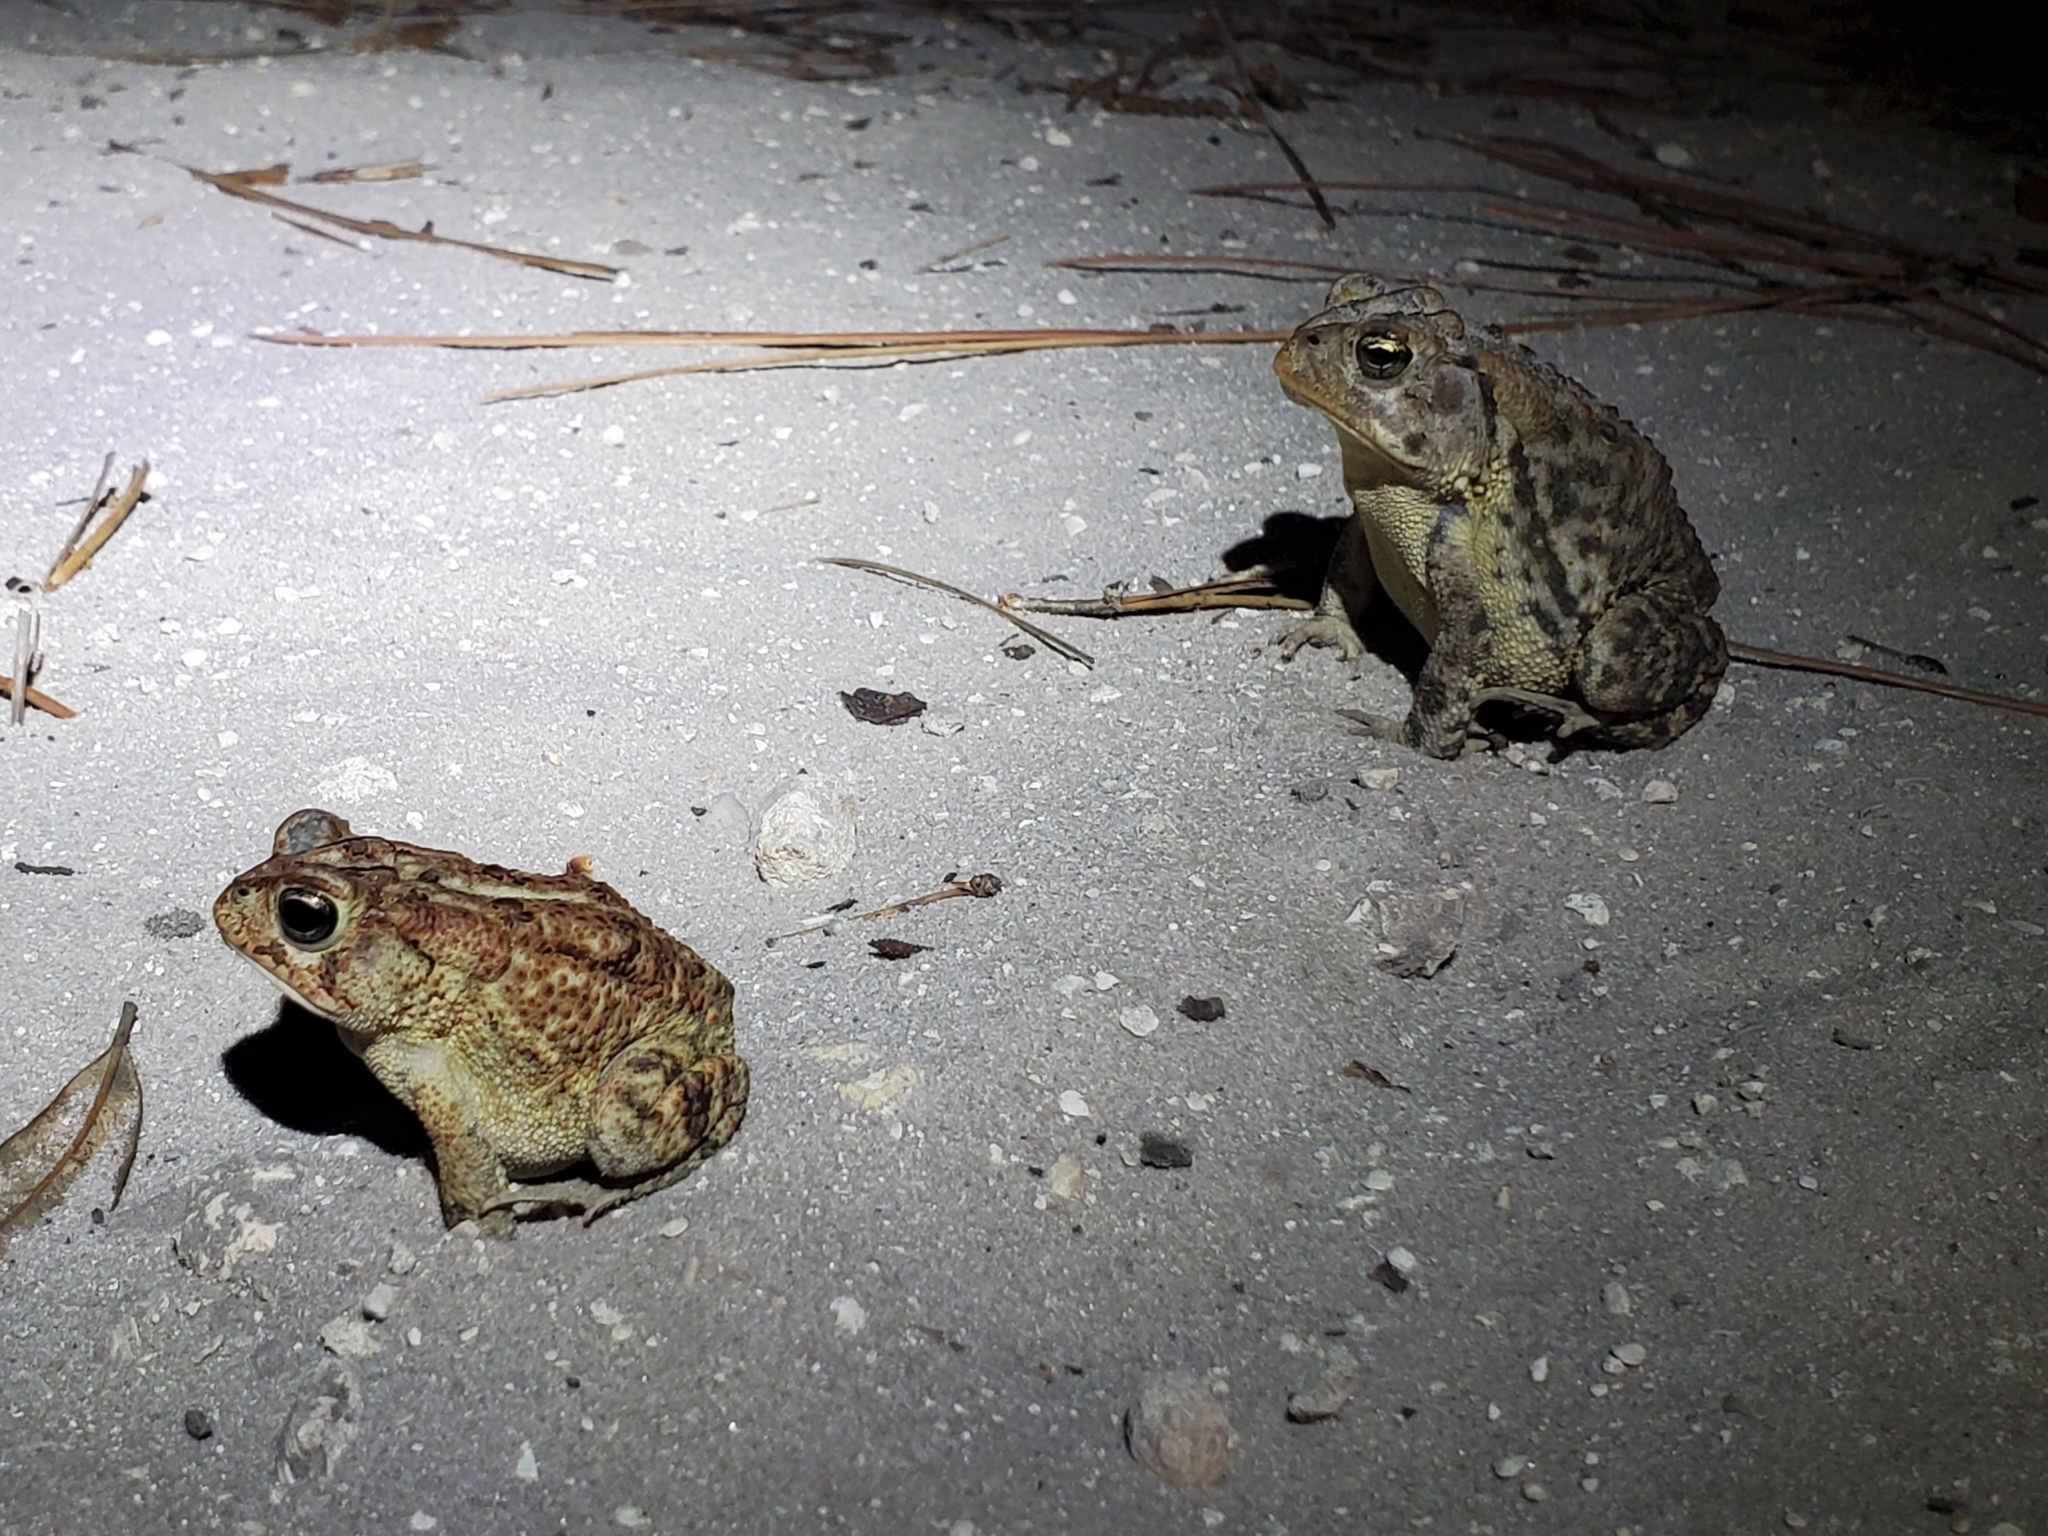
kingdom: Animalia
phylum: Chordata
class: Amphibia
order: Anura
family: Bufonidae
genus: Anaxyrus
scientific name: Anaxyrus terrestris
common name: Southern toad
